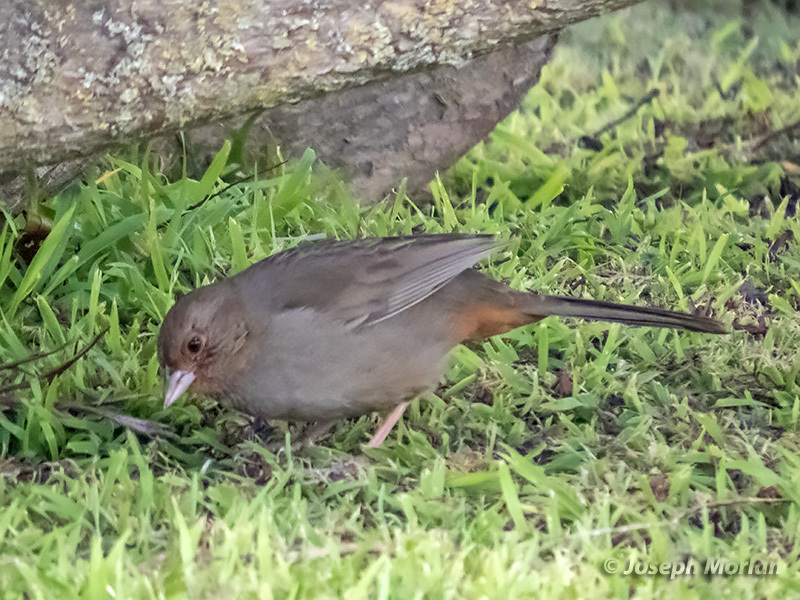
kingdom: Animalia
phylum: Chordata
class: Aves
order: Passeriformes
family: Passerellidae
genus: Melozone
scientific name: Melozone crissalis
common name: California towhee
